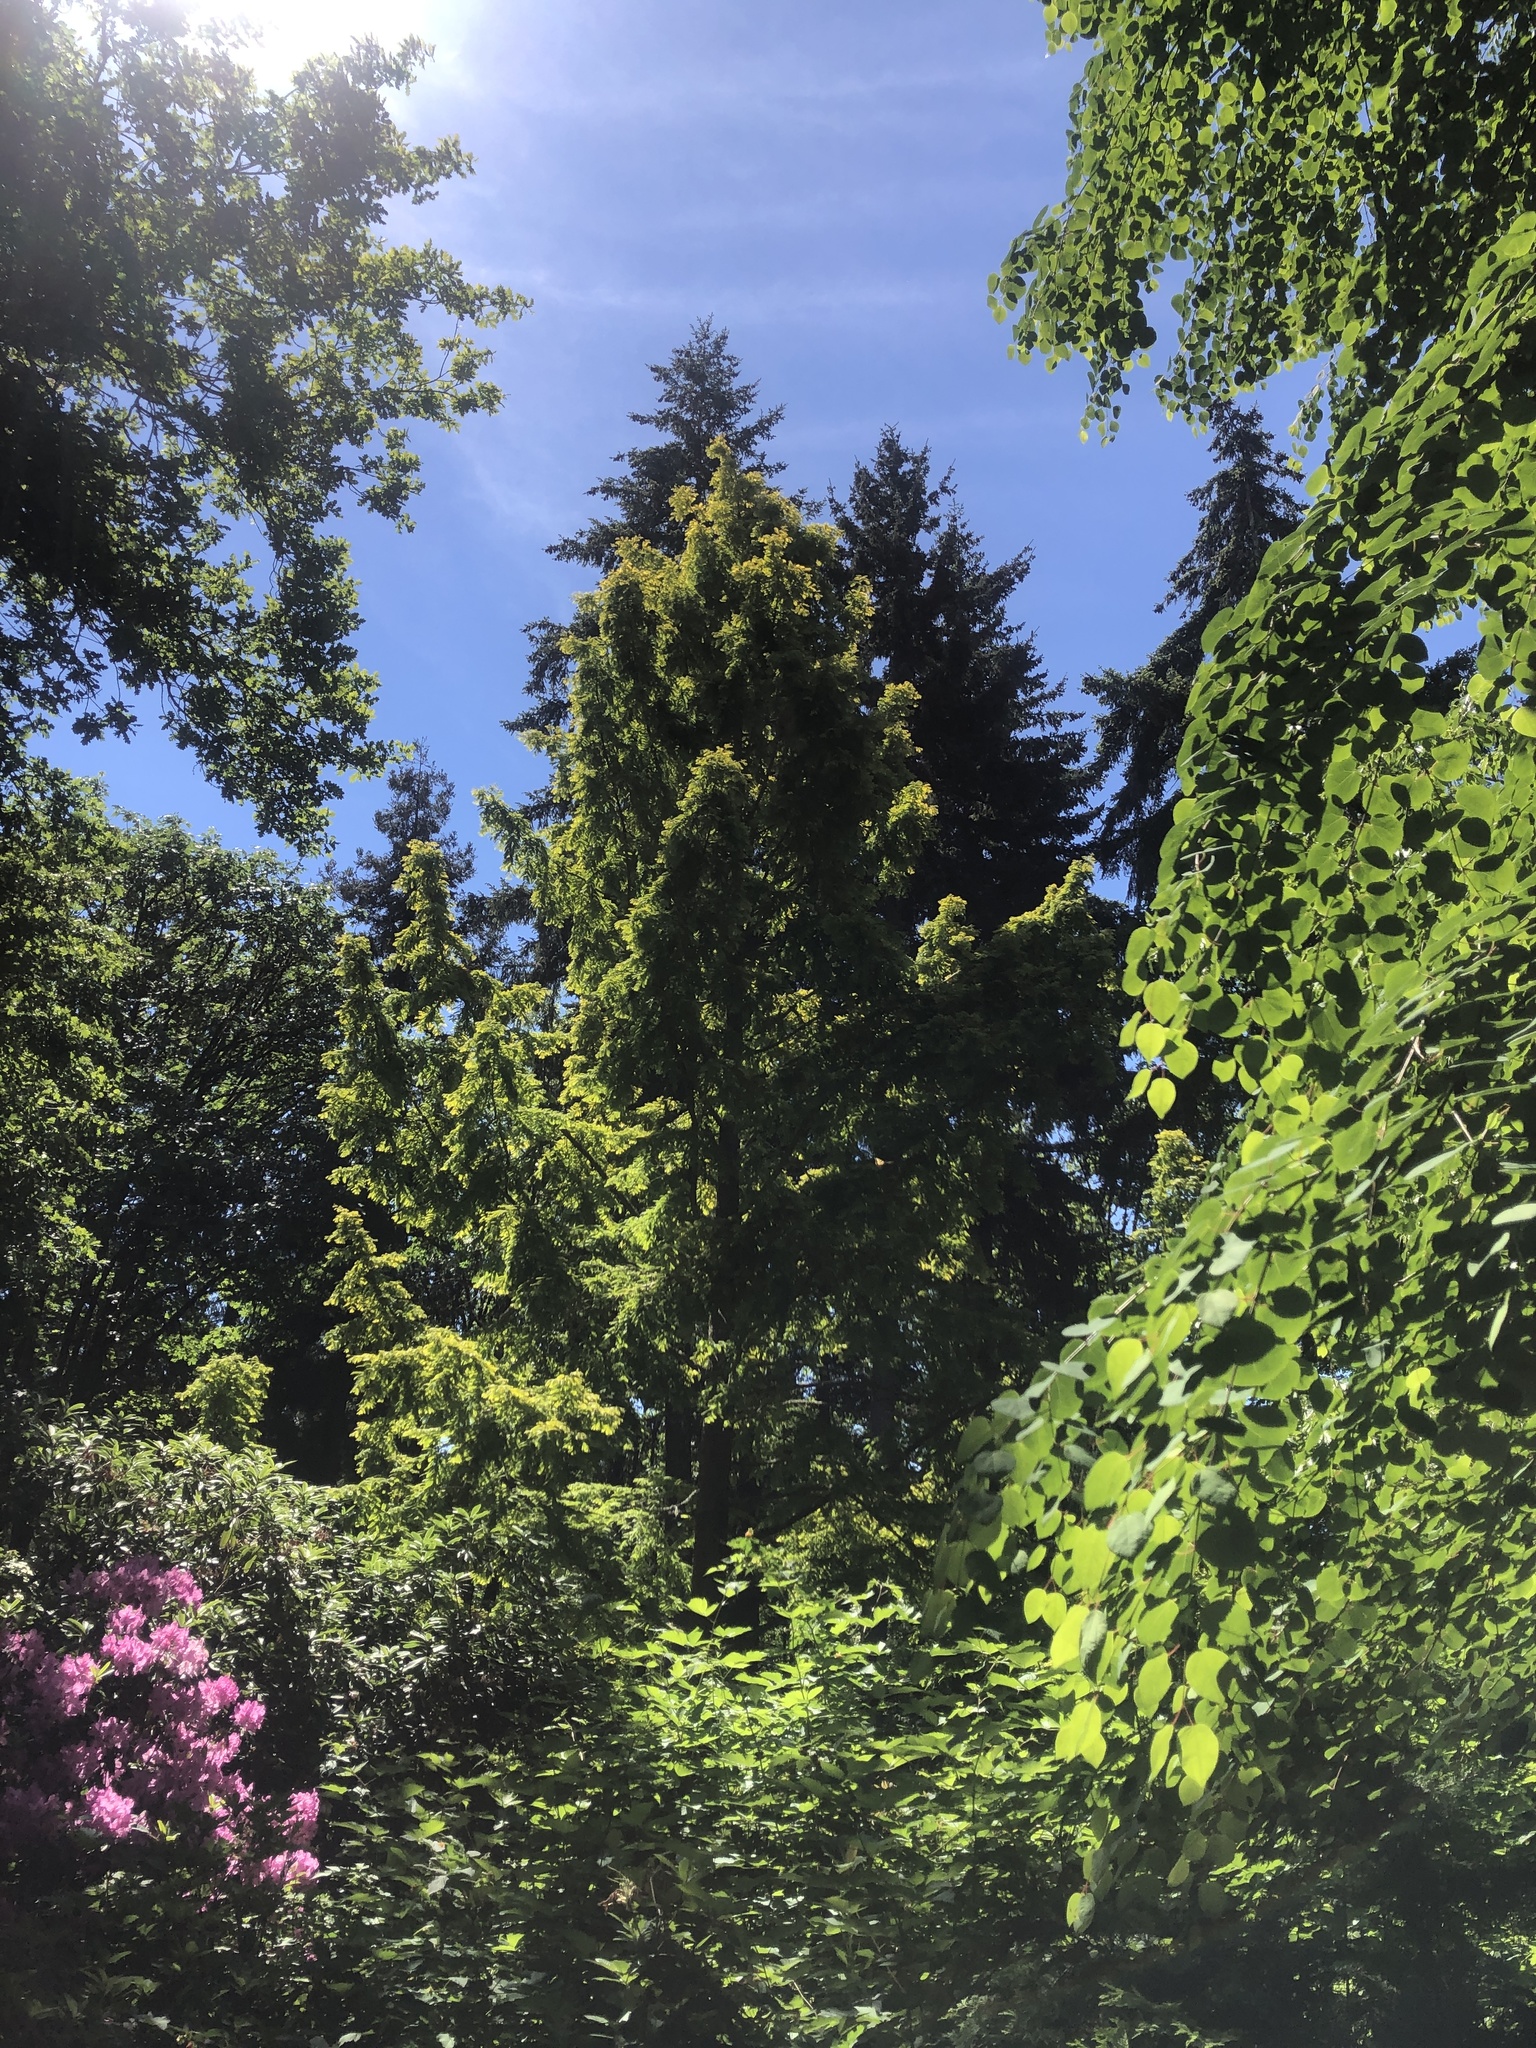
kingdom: Plantae
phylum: Tracheophyta
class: Pinopsida
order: Pinales
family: Pinaceae
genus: Pseudotsuga
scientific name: Pseudotsuga menziesii
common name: Douglas fir
